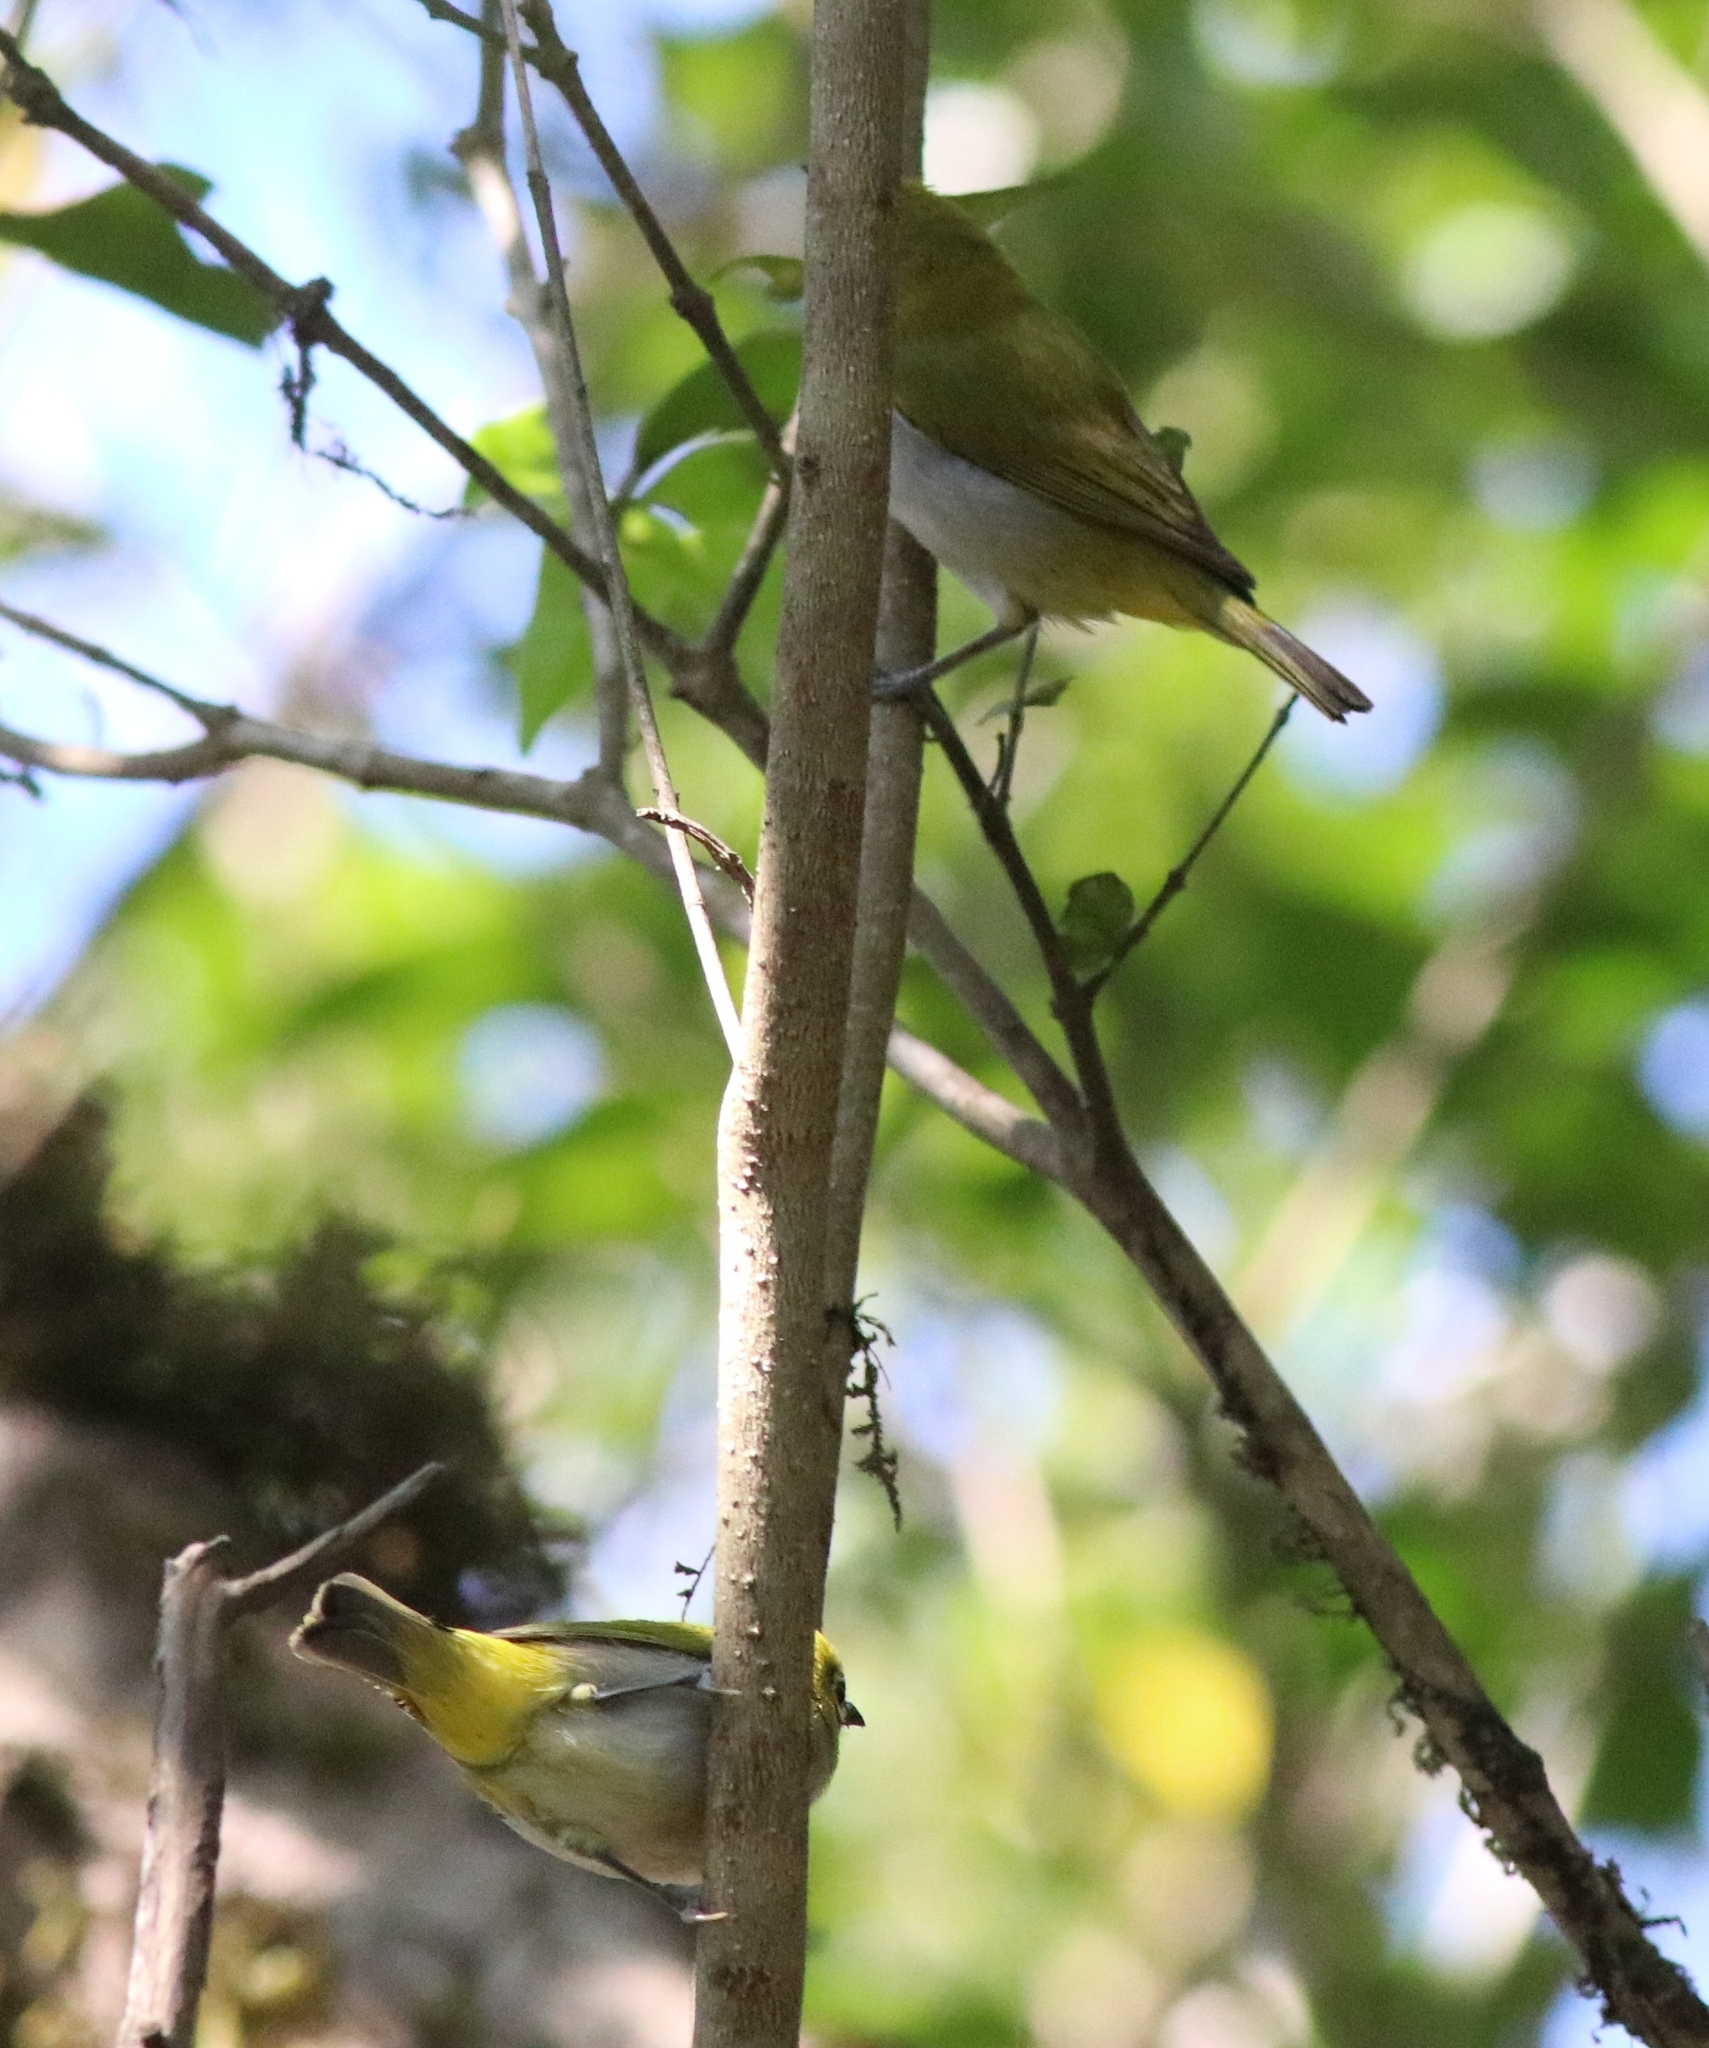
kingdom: Animalia
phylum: Chordata
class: Aves
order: Passeriformes
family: Zosteropidae
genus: Zosterops
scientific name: Zosterops palpebrosus
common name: Oriental white-eye
